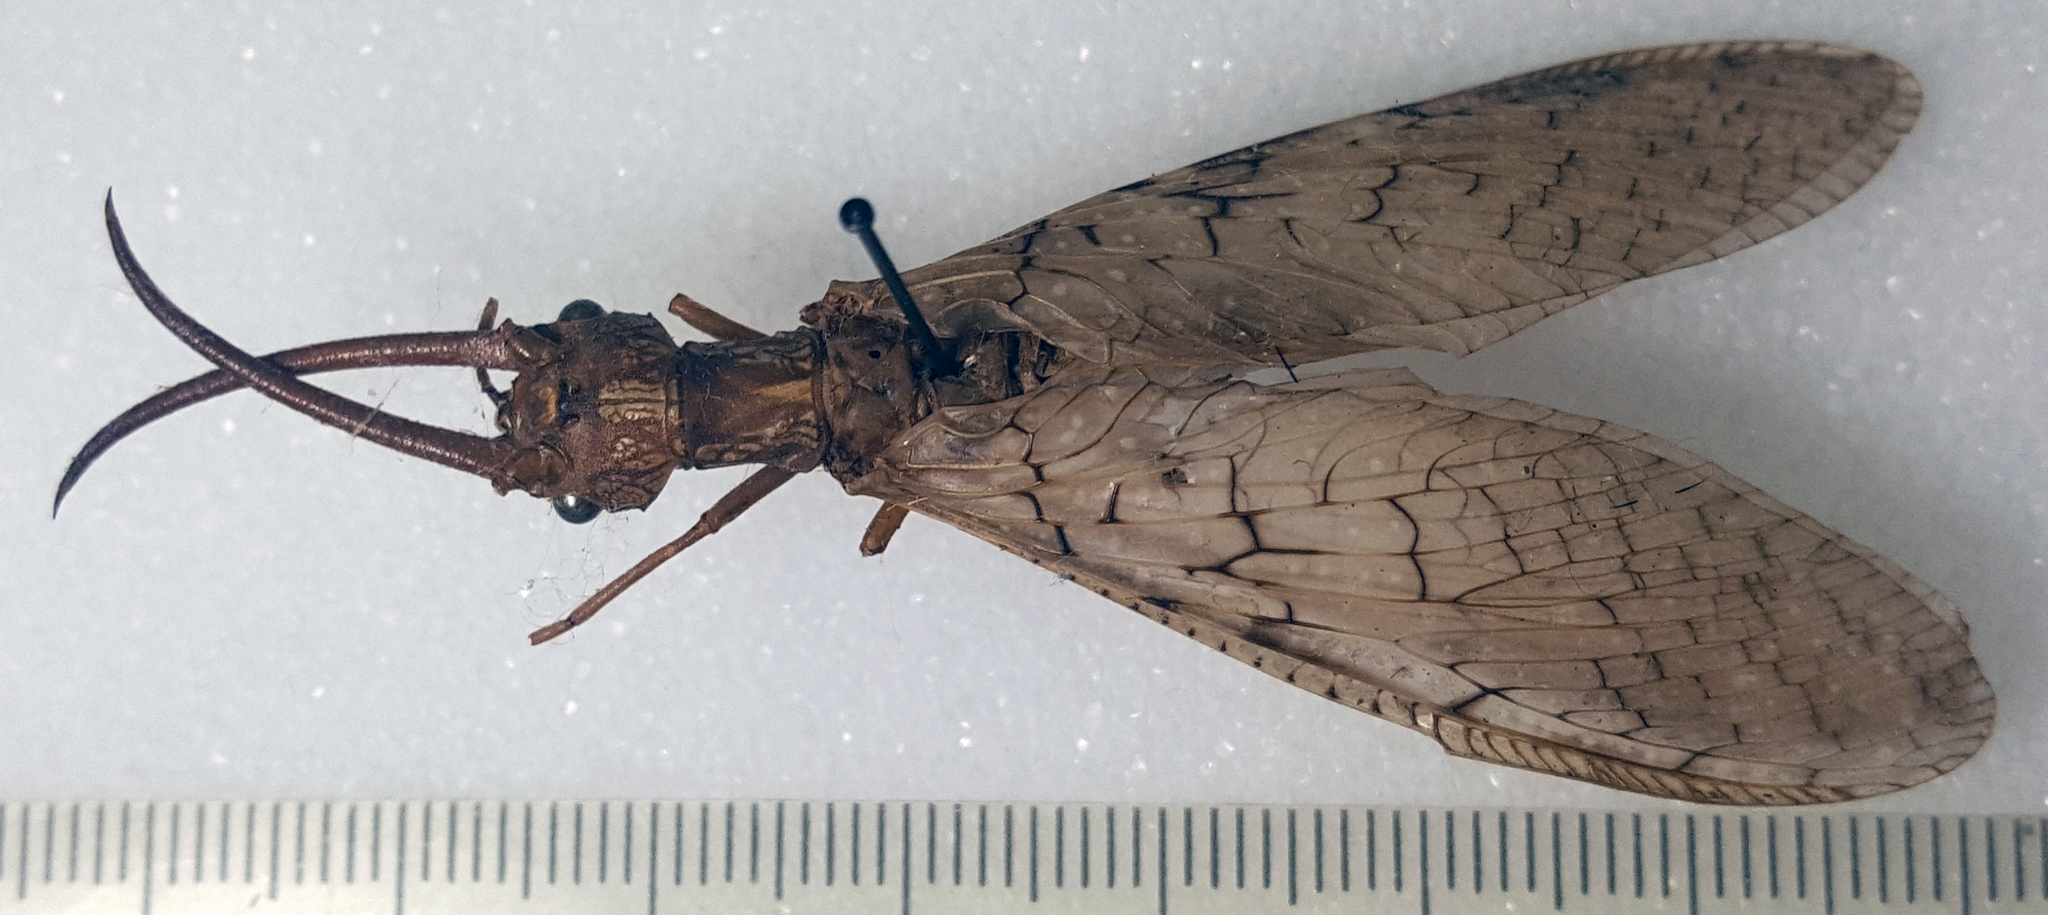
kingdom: Animalia
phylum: Arthropoda
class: Insecta
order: Megaloptera
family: Corydalidae
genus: Corydalus
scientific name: Corydalus cornutus
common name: Dobsonfly
